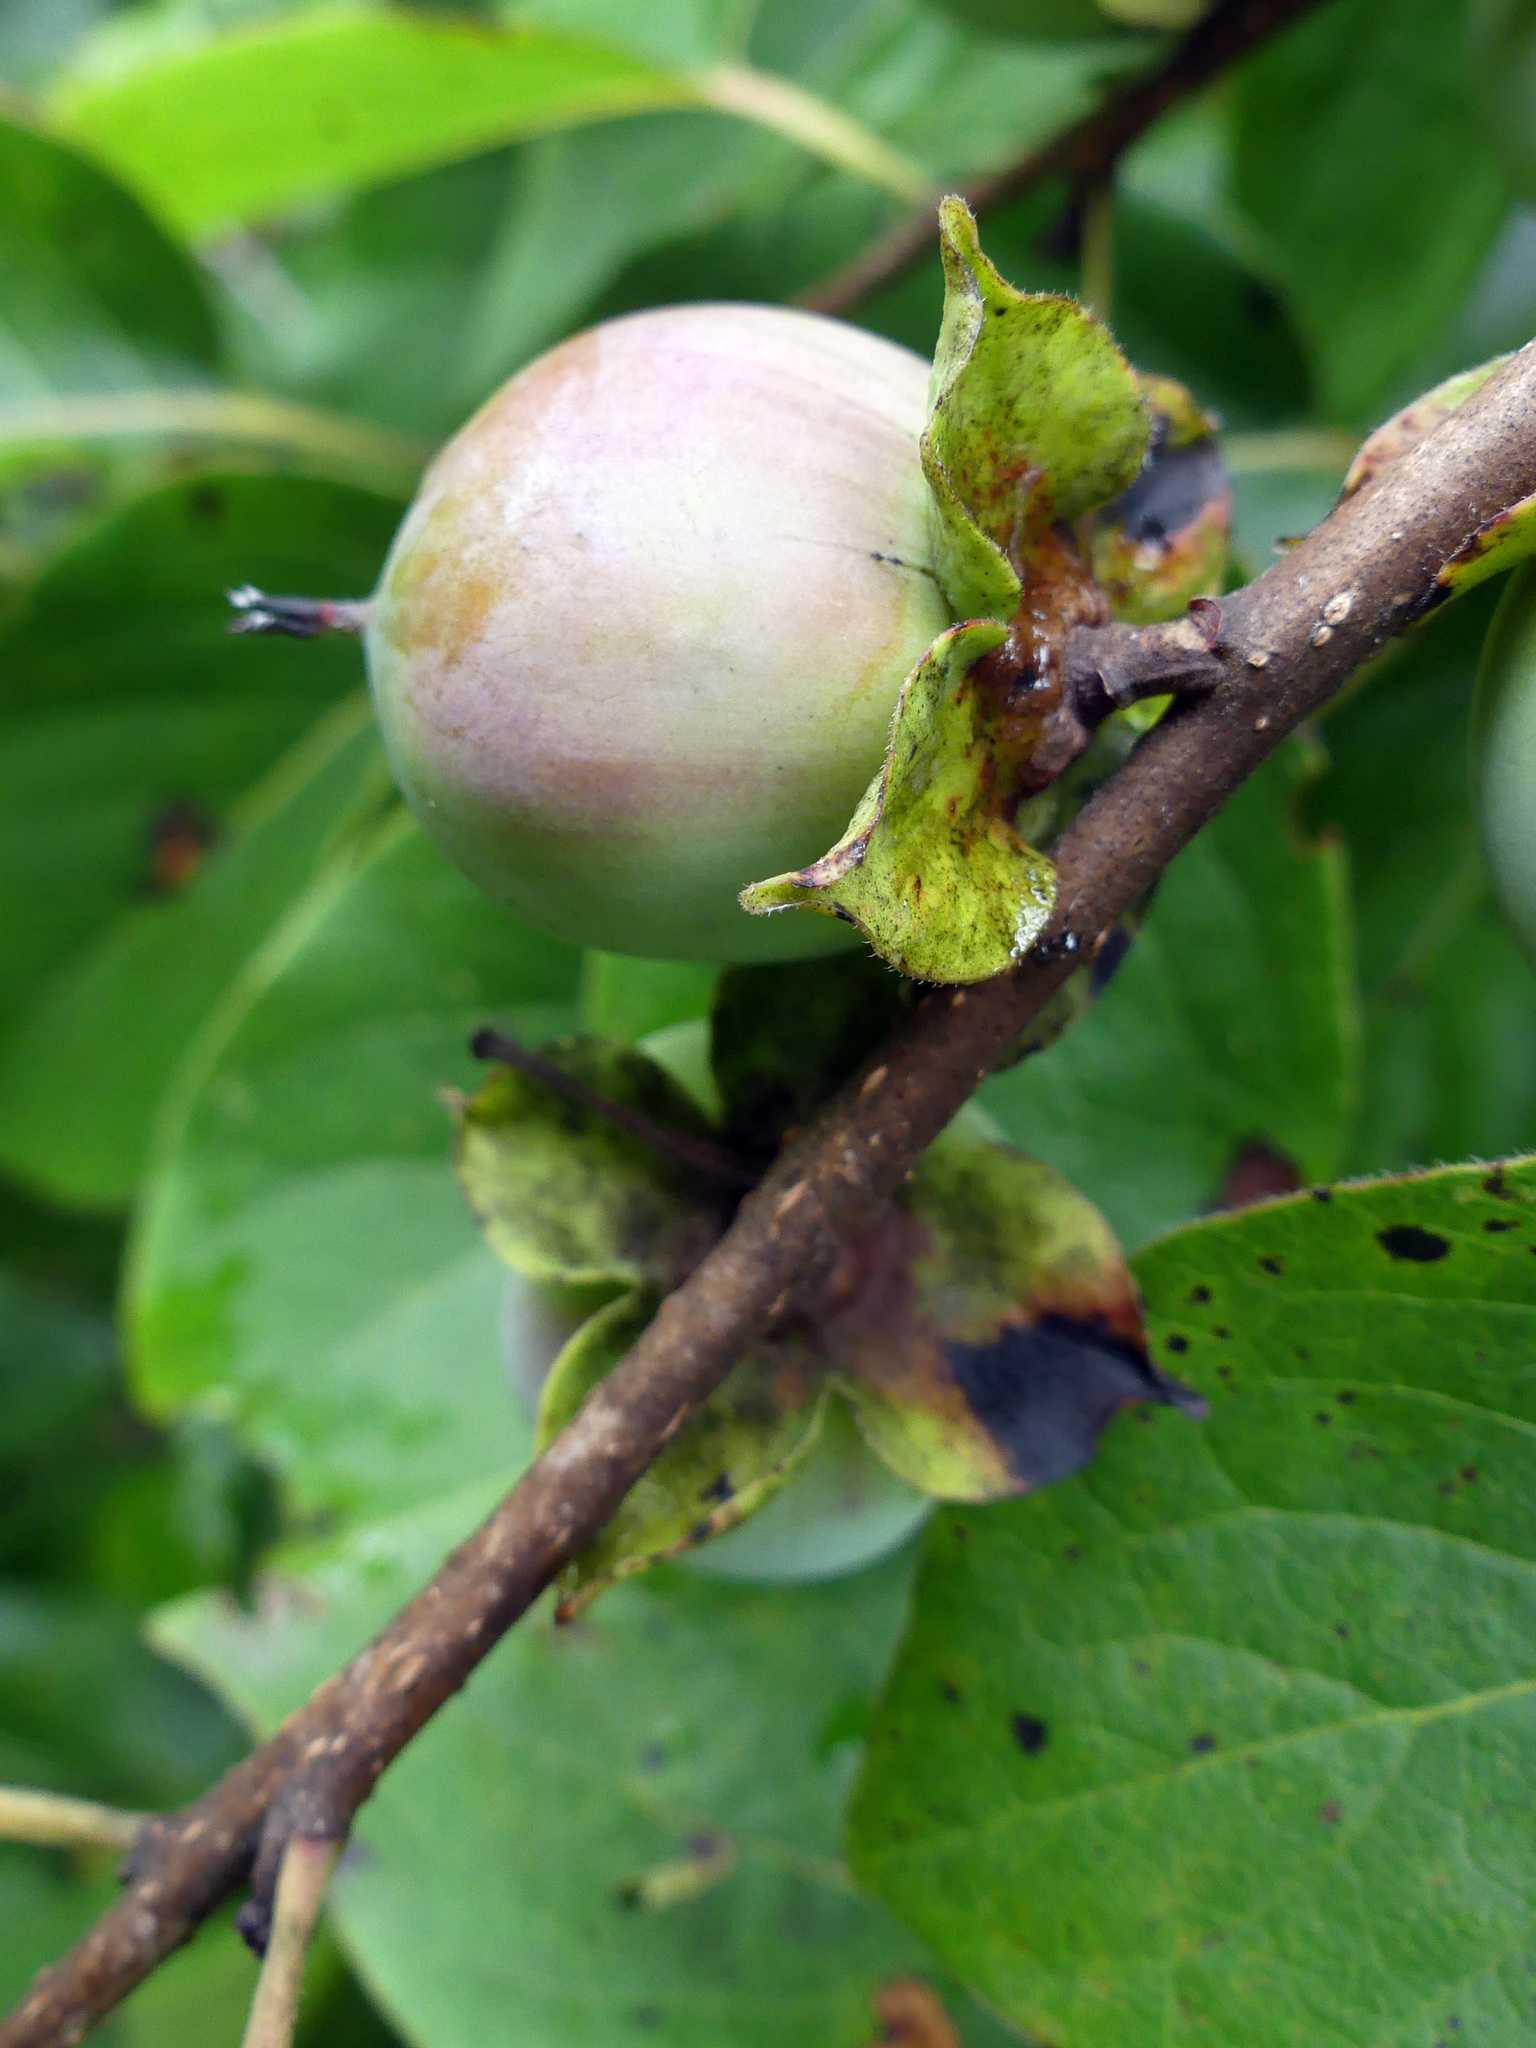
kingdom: Plantae
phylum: Tracheophyta
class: Magnoliopsida
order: Ericales
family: Ebenaceae
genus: Diospyros
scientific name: Diospyros virginiana
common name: Persimmon
